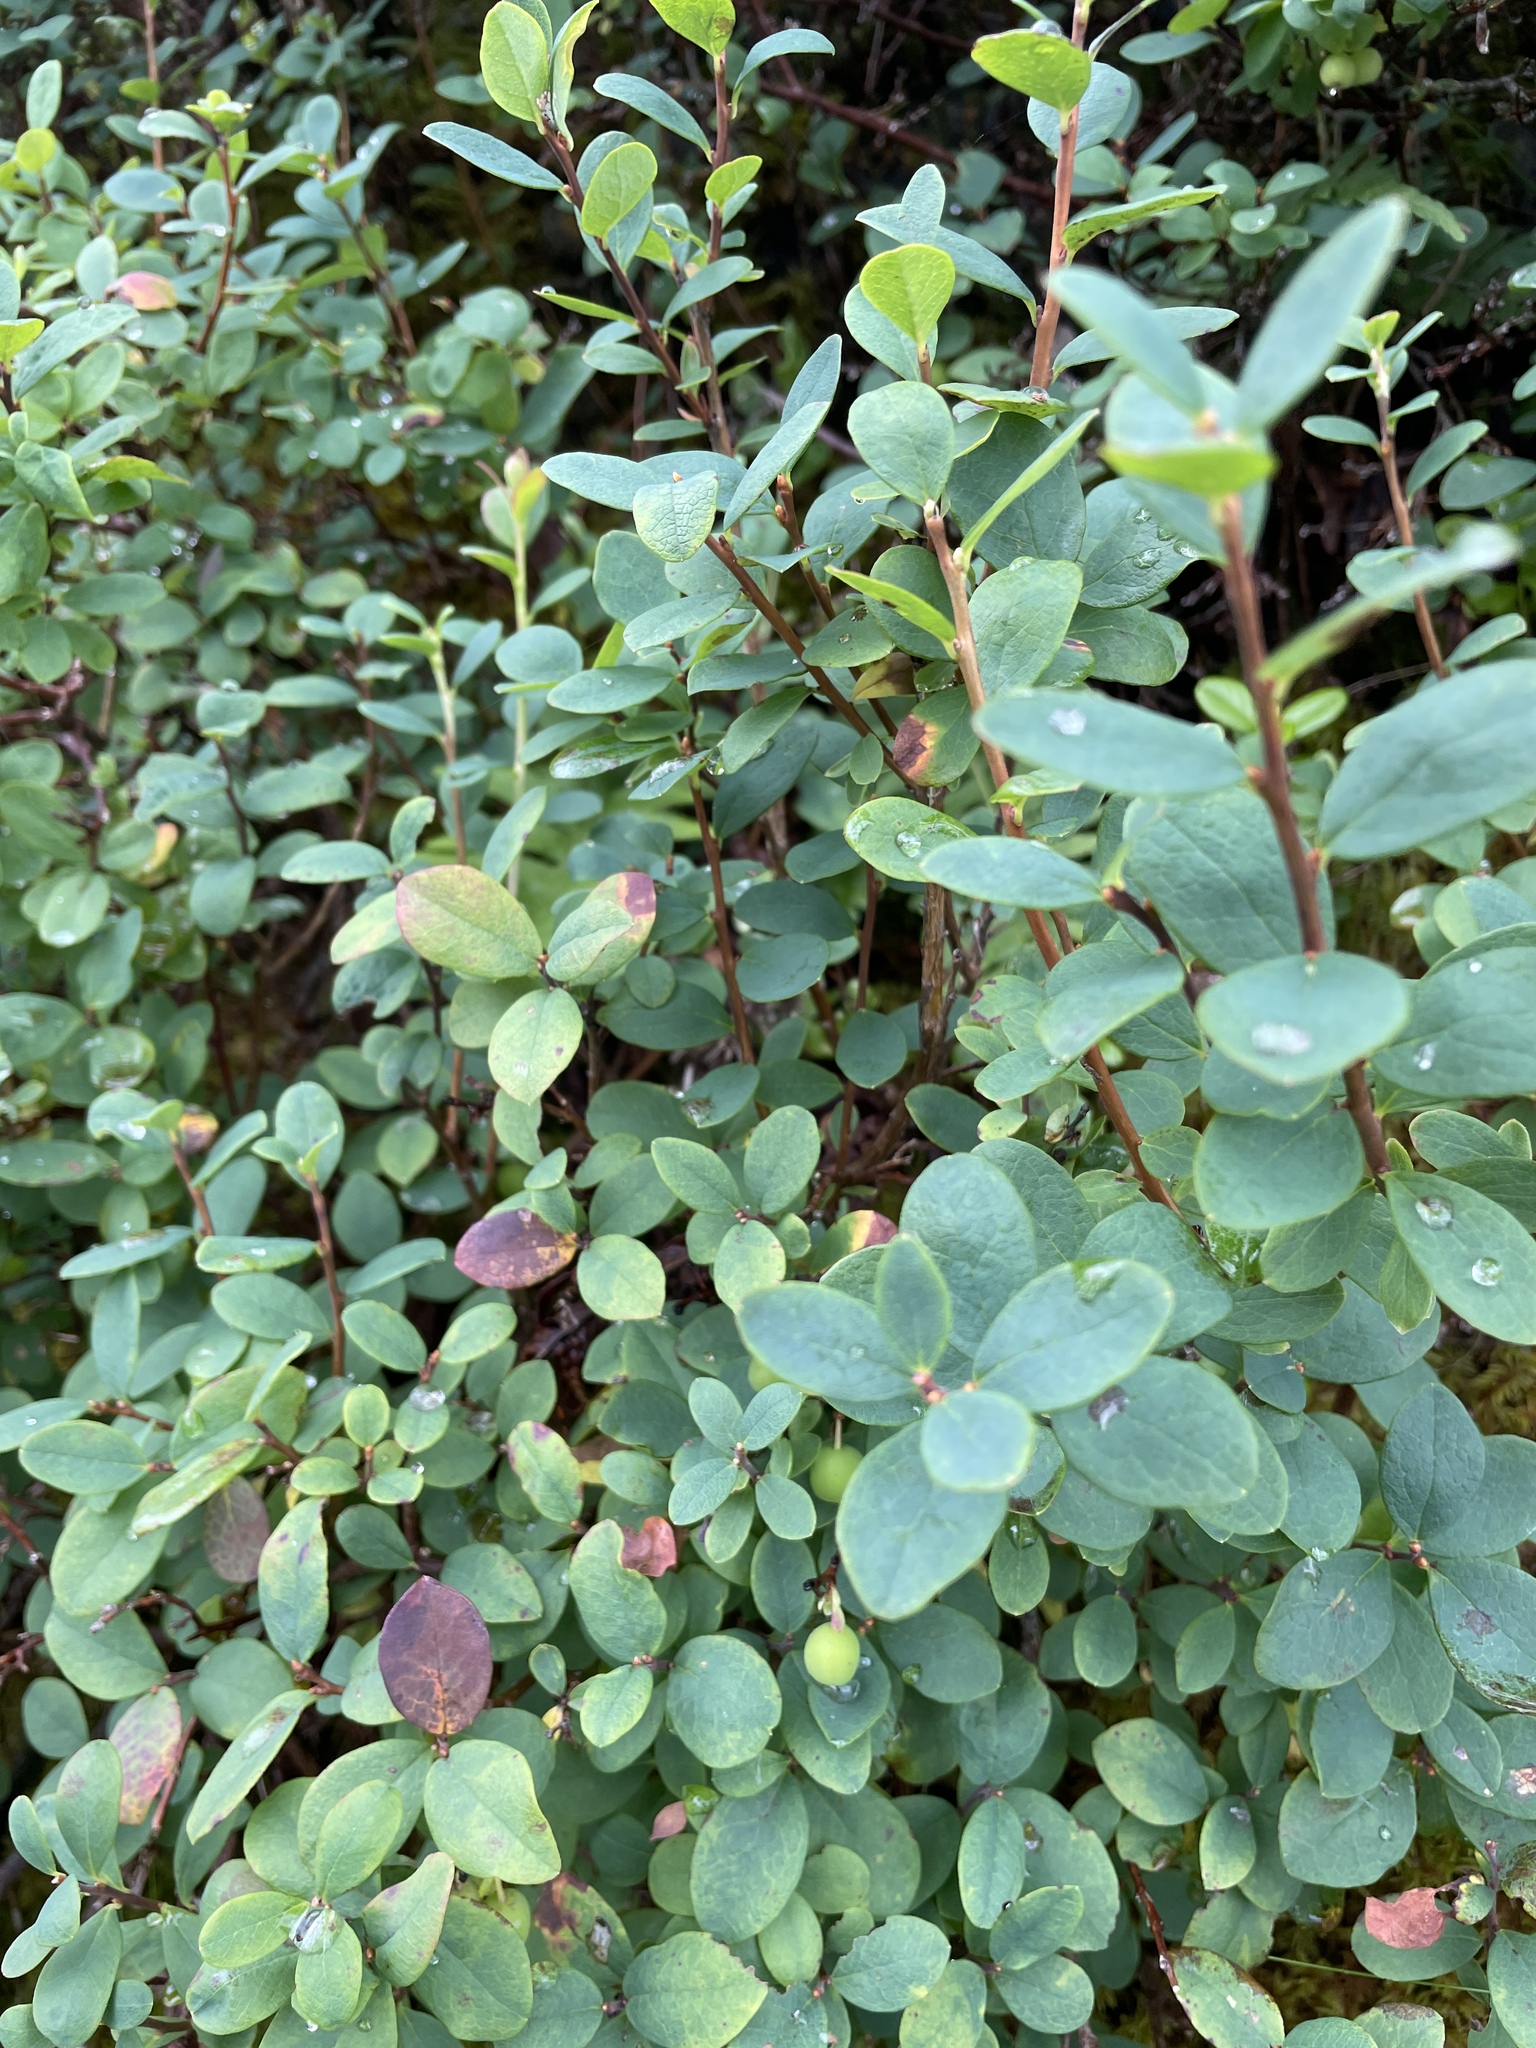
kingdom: Plantae
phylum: Tracheophyta
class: Magnoliopsida
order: Ericales
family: Ericaceae
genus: Vaccinium
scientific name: Vaccinium uliginosum
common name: Bog bilberry
